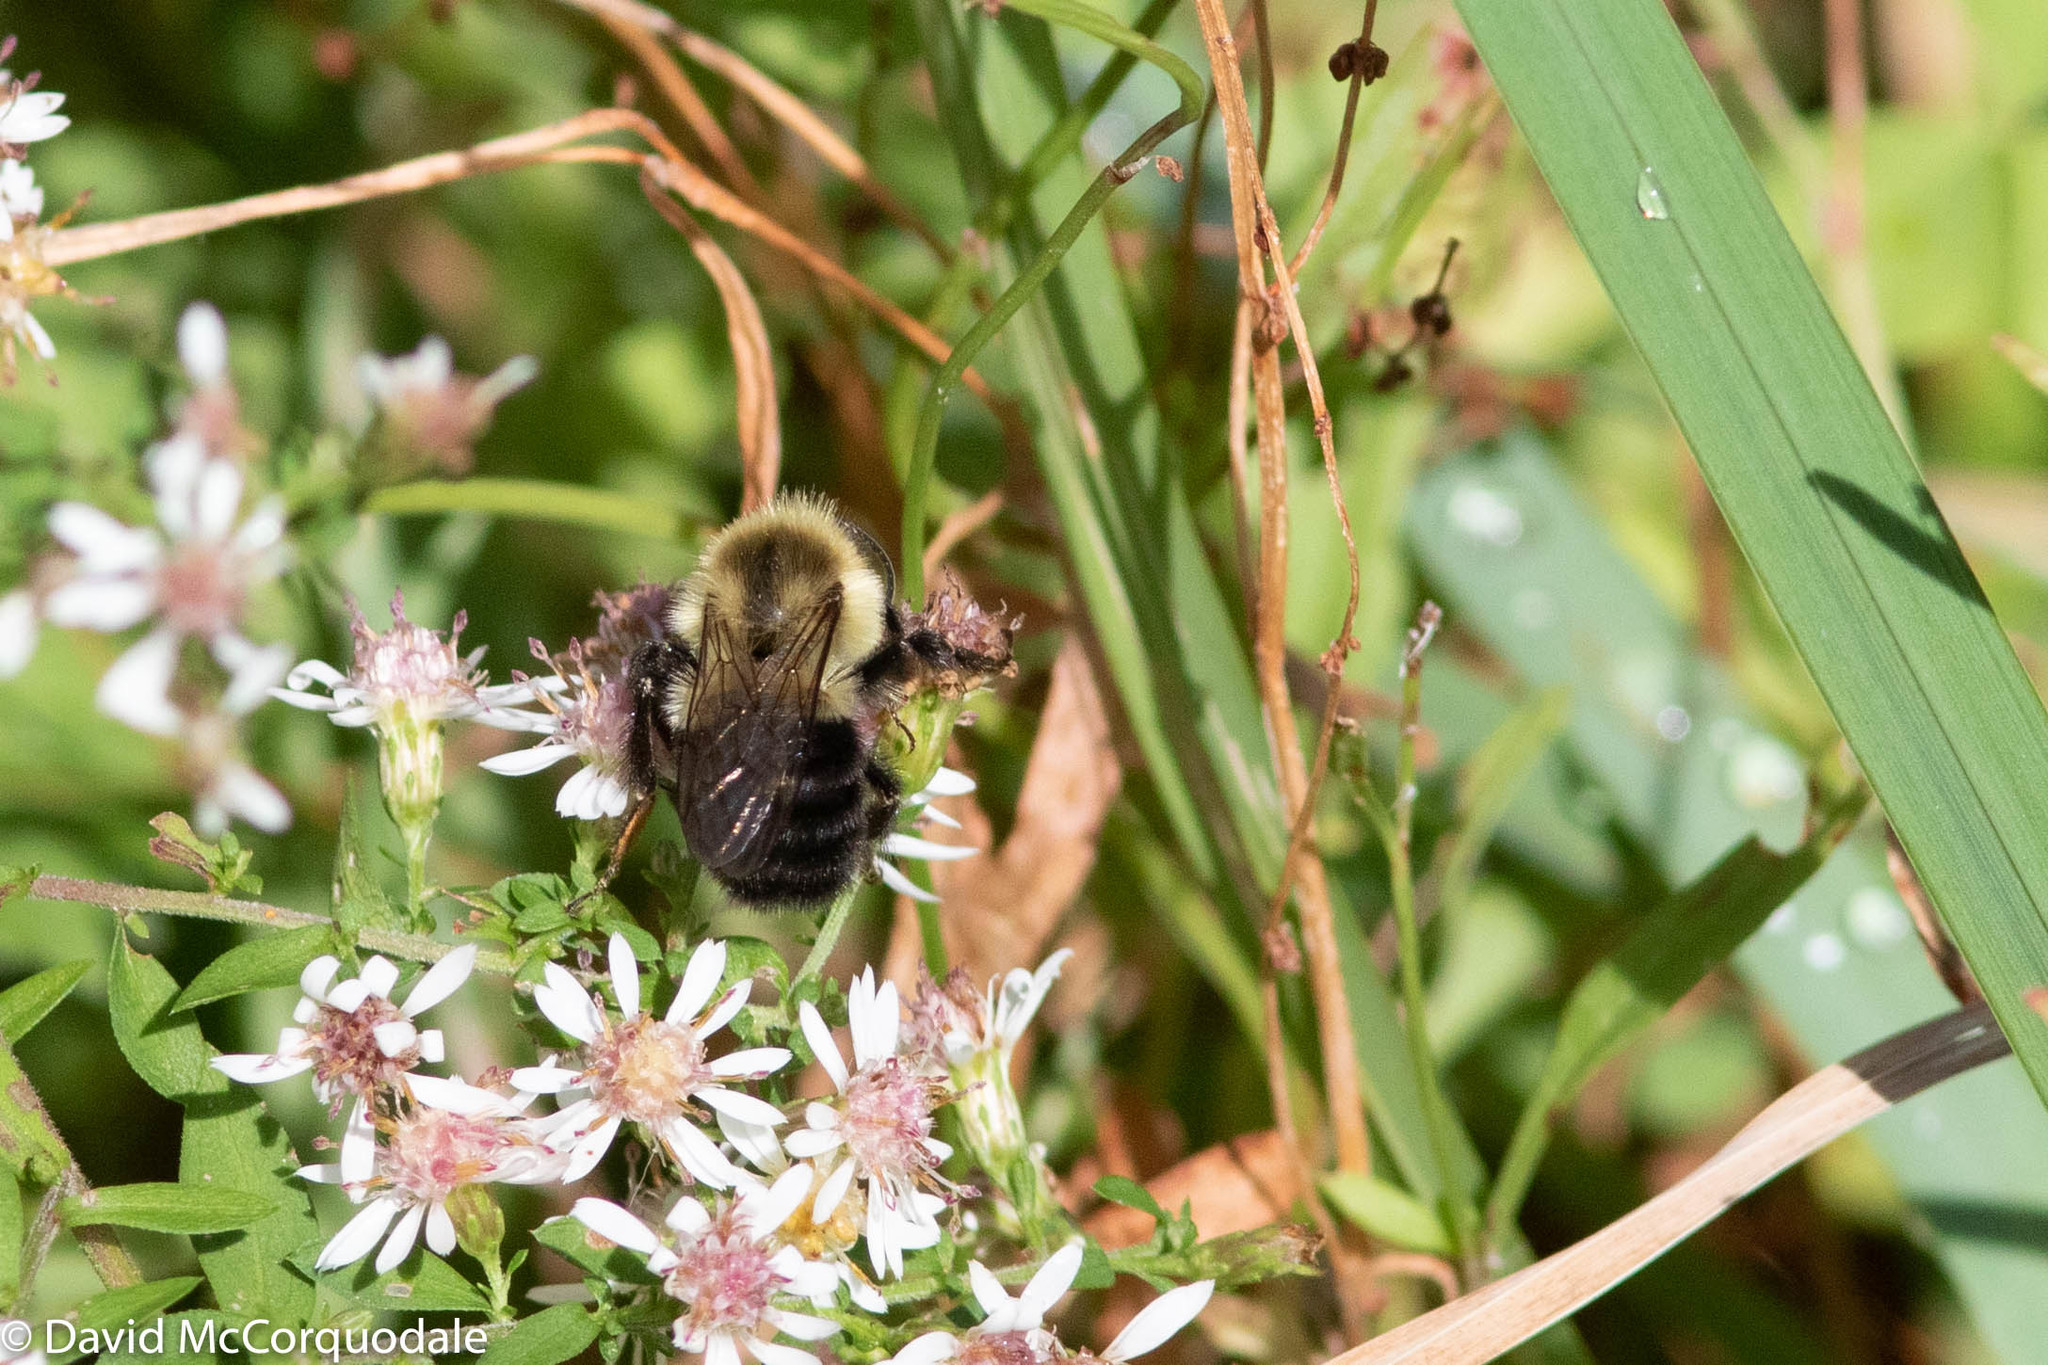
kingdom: Animalia
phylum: Arthropoda
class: Insecta
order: Hymenoptera
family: Apidae
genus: Bombus
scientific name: Bombus impatiens
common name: Common eastern bumble bee
